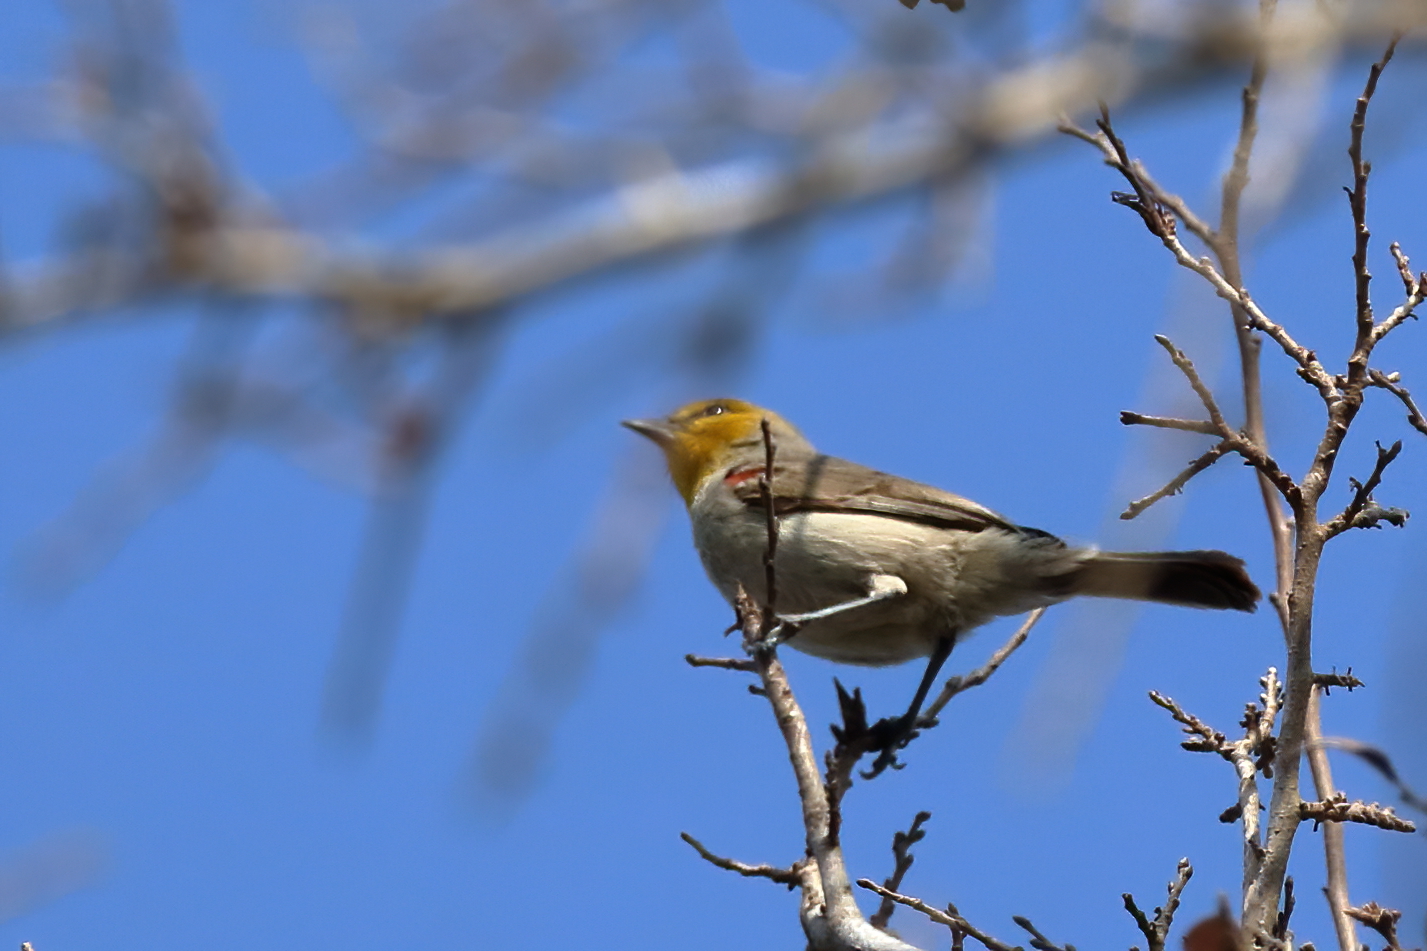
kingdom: Animalia
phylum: Chordata
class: Aves
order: Passeriformes
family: Remizidae
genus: Auriparus
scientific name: Auriparus flaviceps
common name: Verdin
